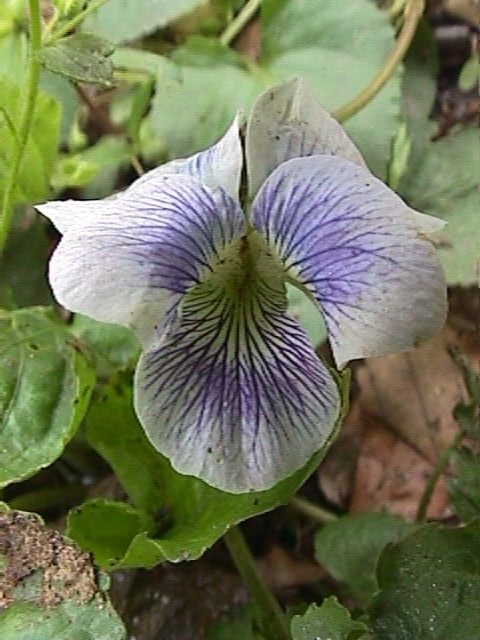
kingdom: Plantae
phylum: Tracheophyta
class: Magnoliopsida
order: Malpighiales
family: Violaceae
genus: Viola
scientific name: Viola sororia
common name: Dooryard violet
